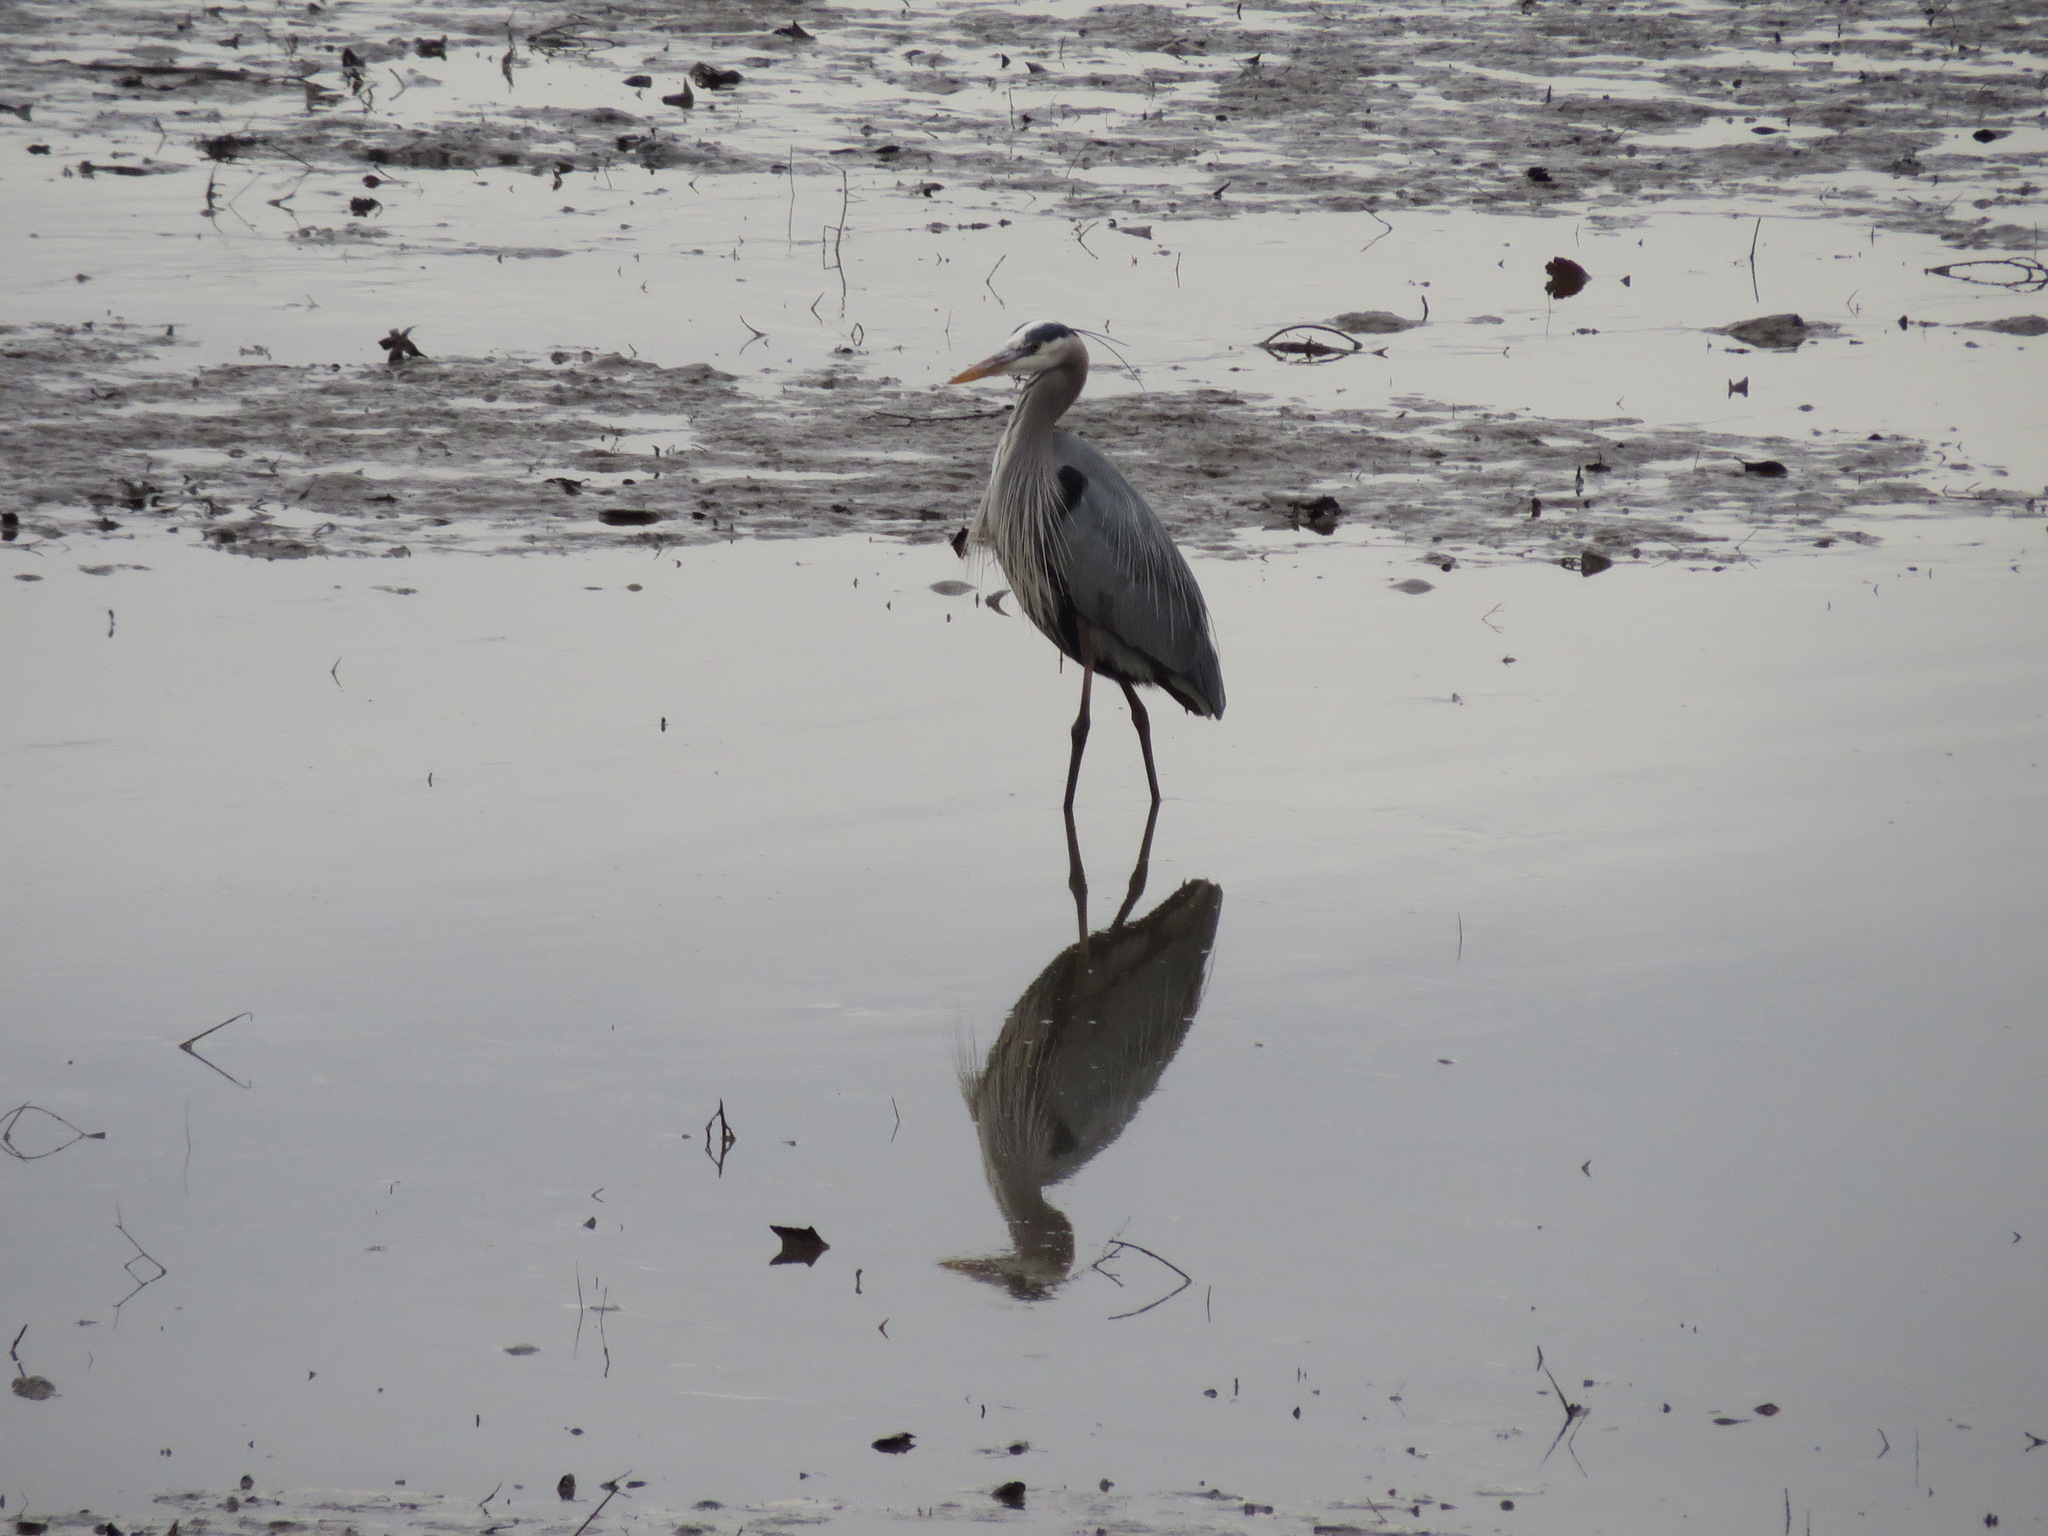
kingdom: Animalia
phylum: Chordata
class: Aves
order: Pelecaniformes
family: Ardeidae
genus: Ardea
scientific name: Ardea herodias
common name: Great blue heron
